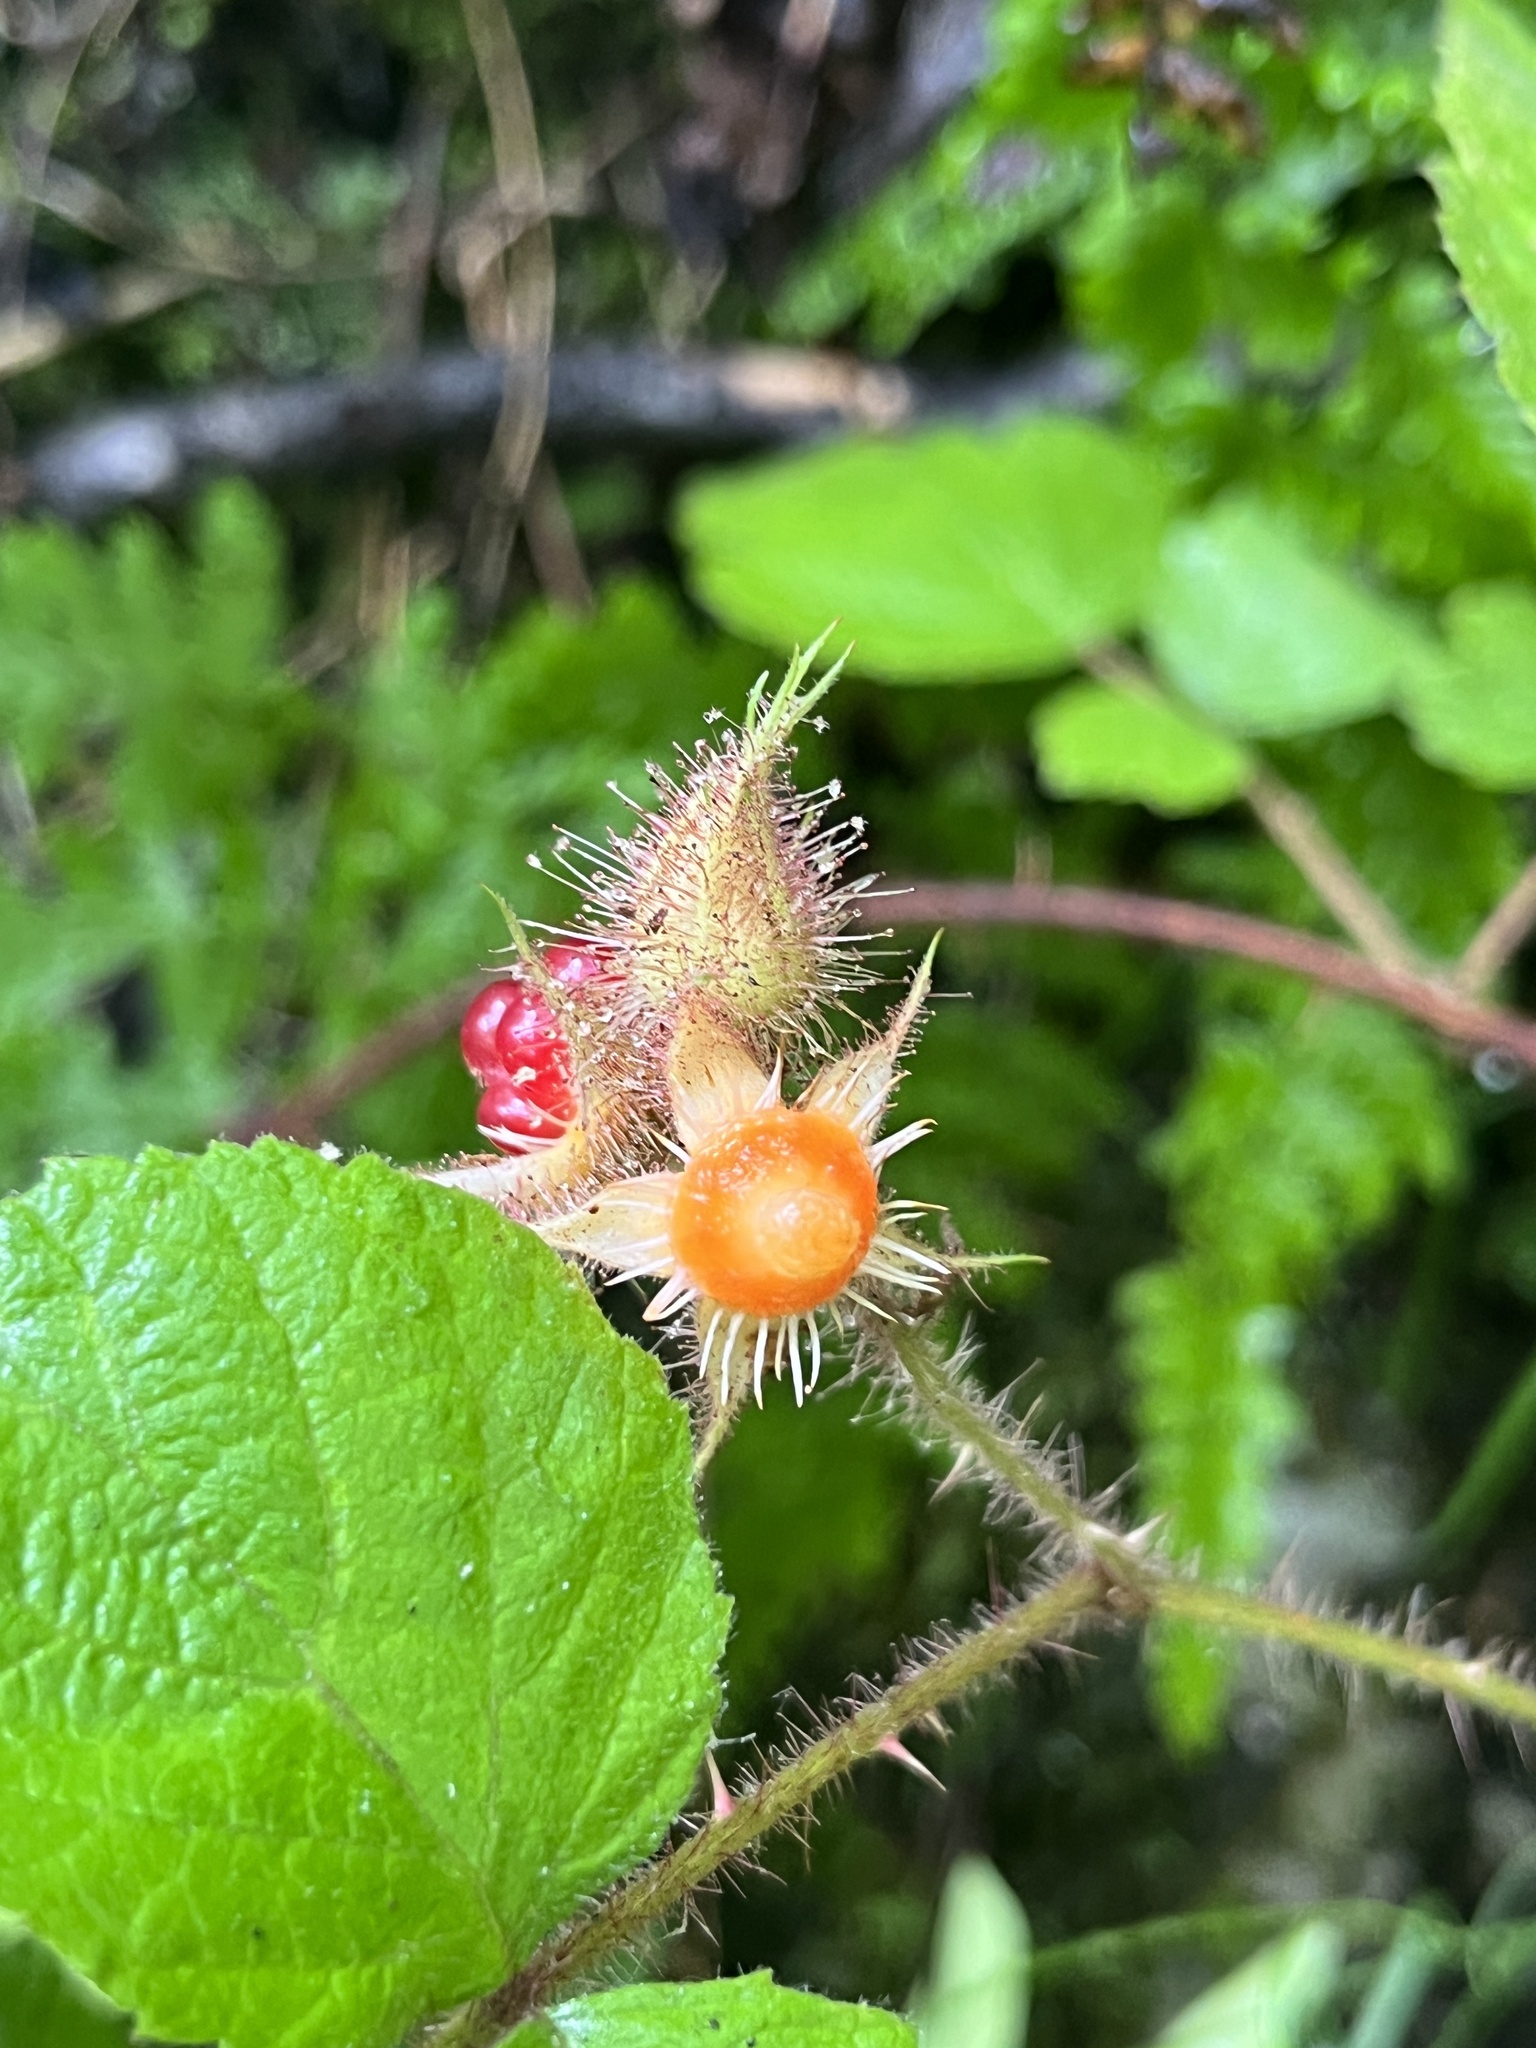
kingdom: Plantae
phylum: Tracheophyta
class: Magnoliopsida
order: Rosales
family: Rosaceae
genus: Rubus
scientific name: Rubus phoenicolasius
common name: Japanese wineberry
